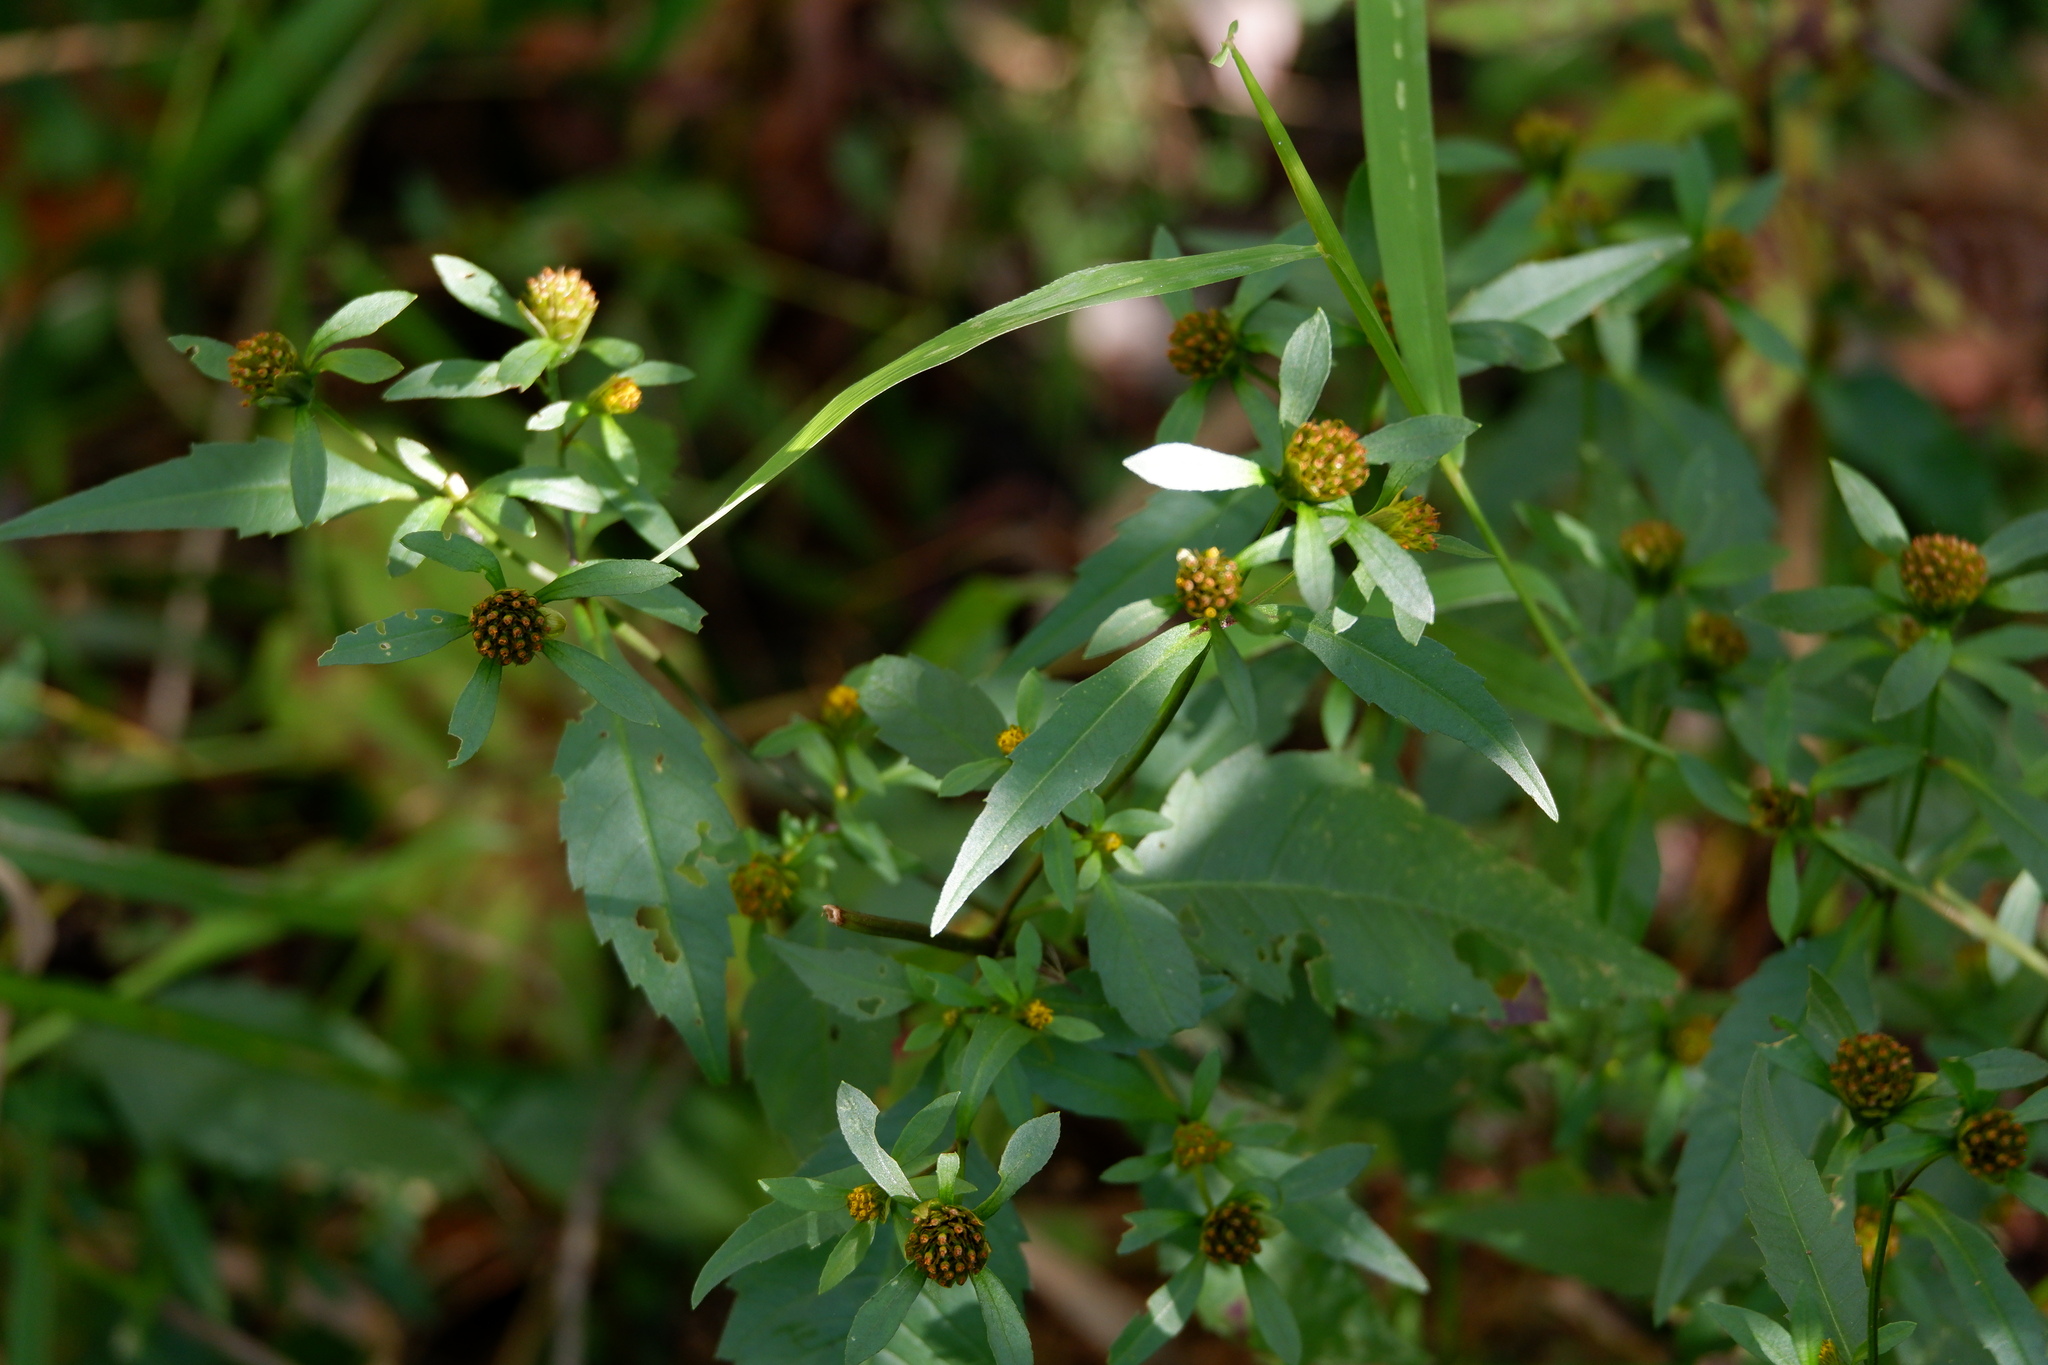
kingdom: Plantae
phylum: Tracheophyta
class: Magnoliopsida
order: Asterales
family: Asteraceae
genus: Bidens
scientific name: Bidens connata
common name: London bur-marigold
